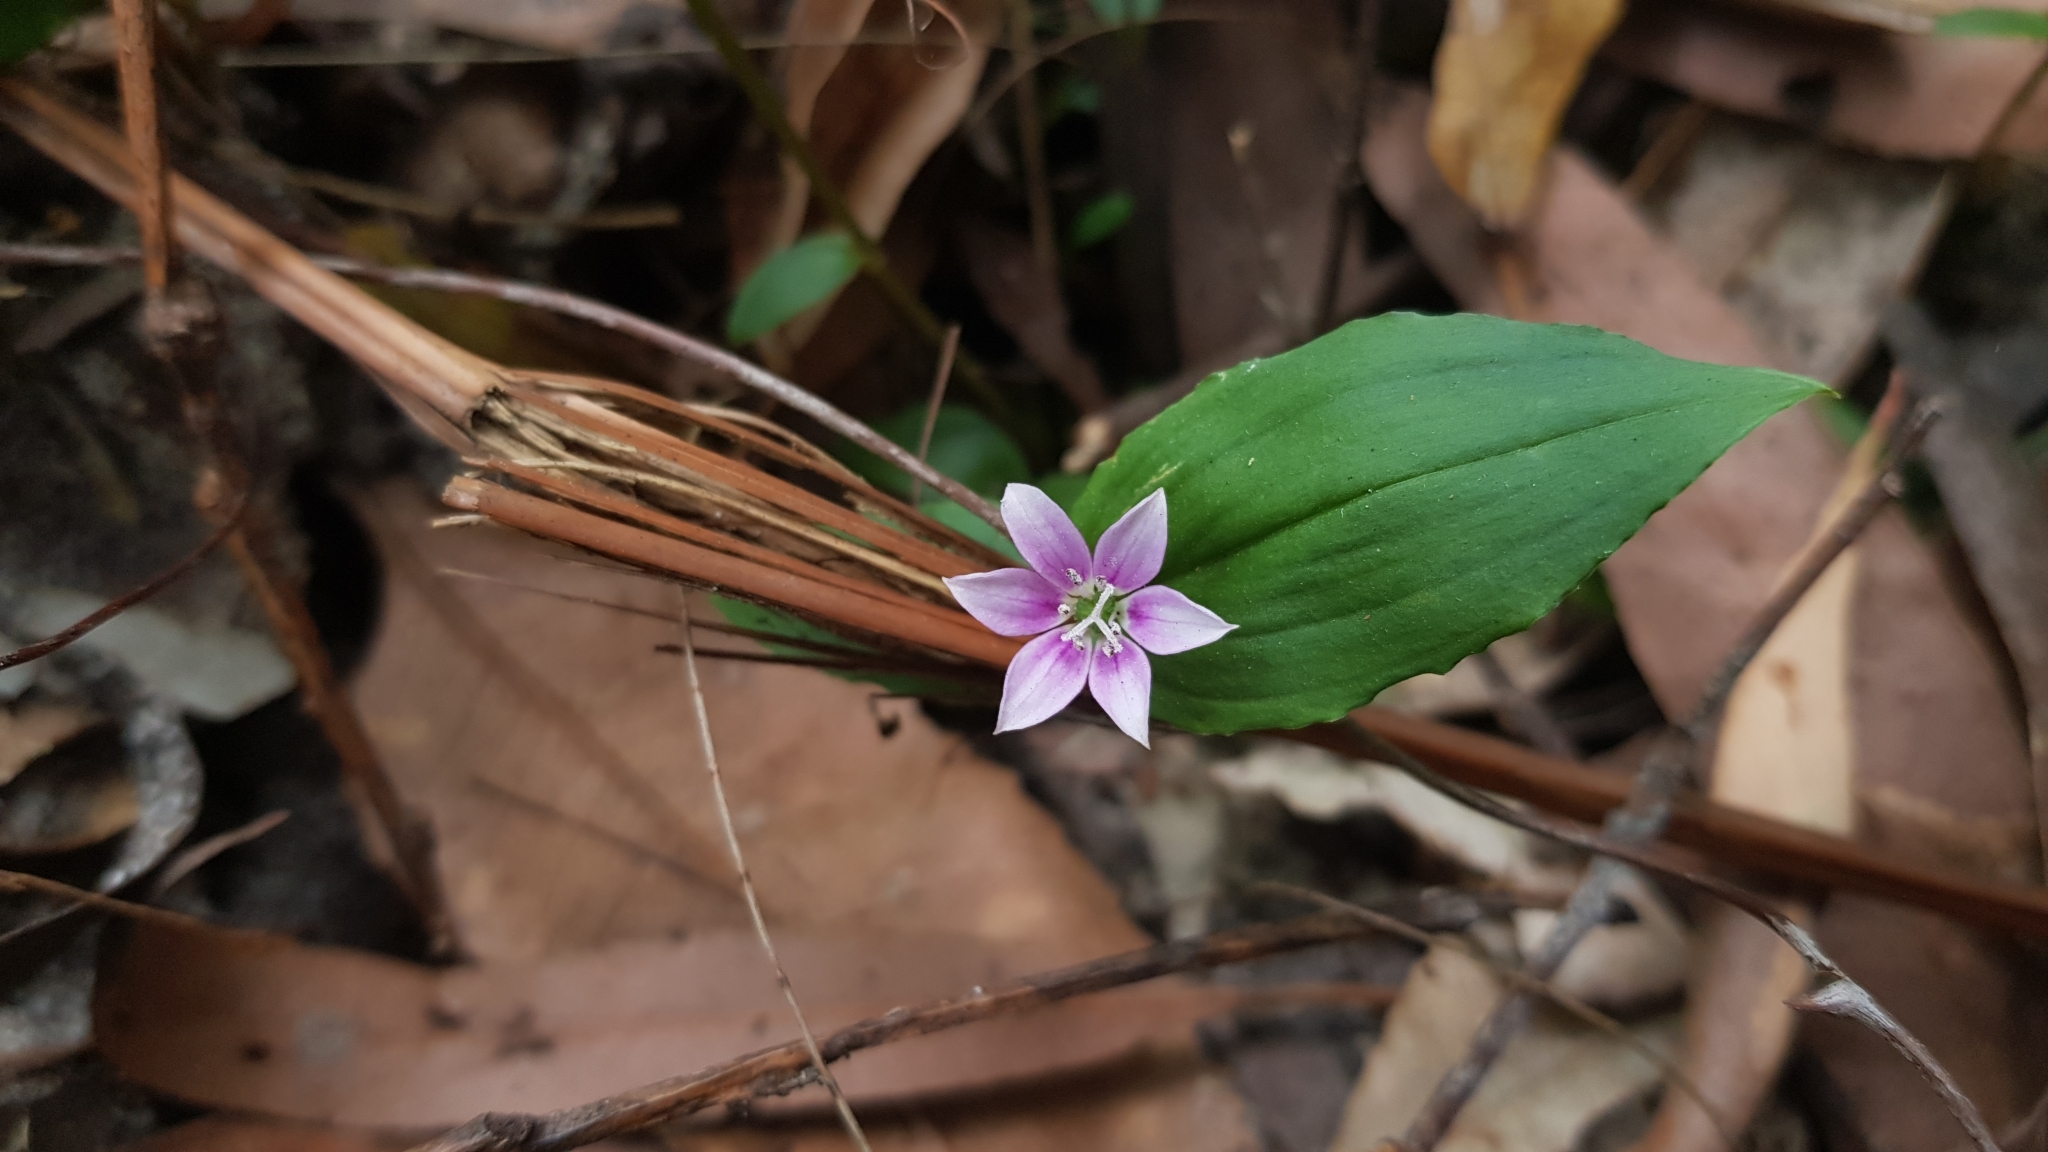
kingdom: Plantae
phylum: Tracheophyta
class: Liliopsida
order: Liliales
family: Colchicaceae
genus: Schelhammera
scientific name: Schelhammera undulata
